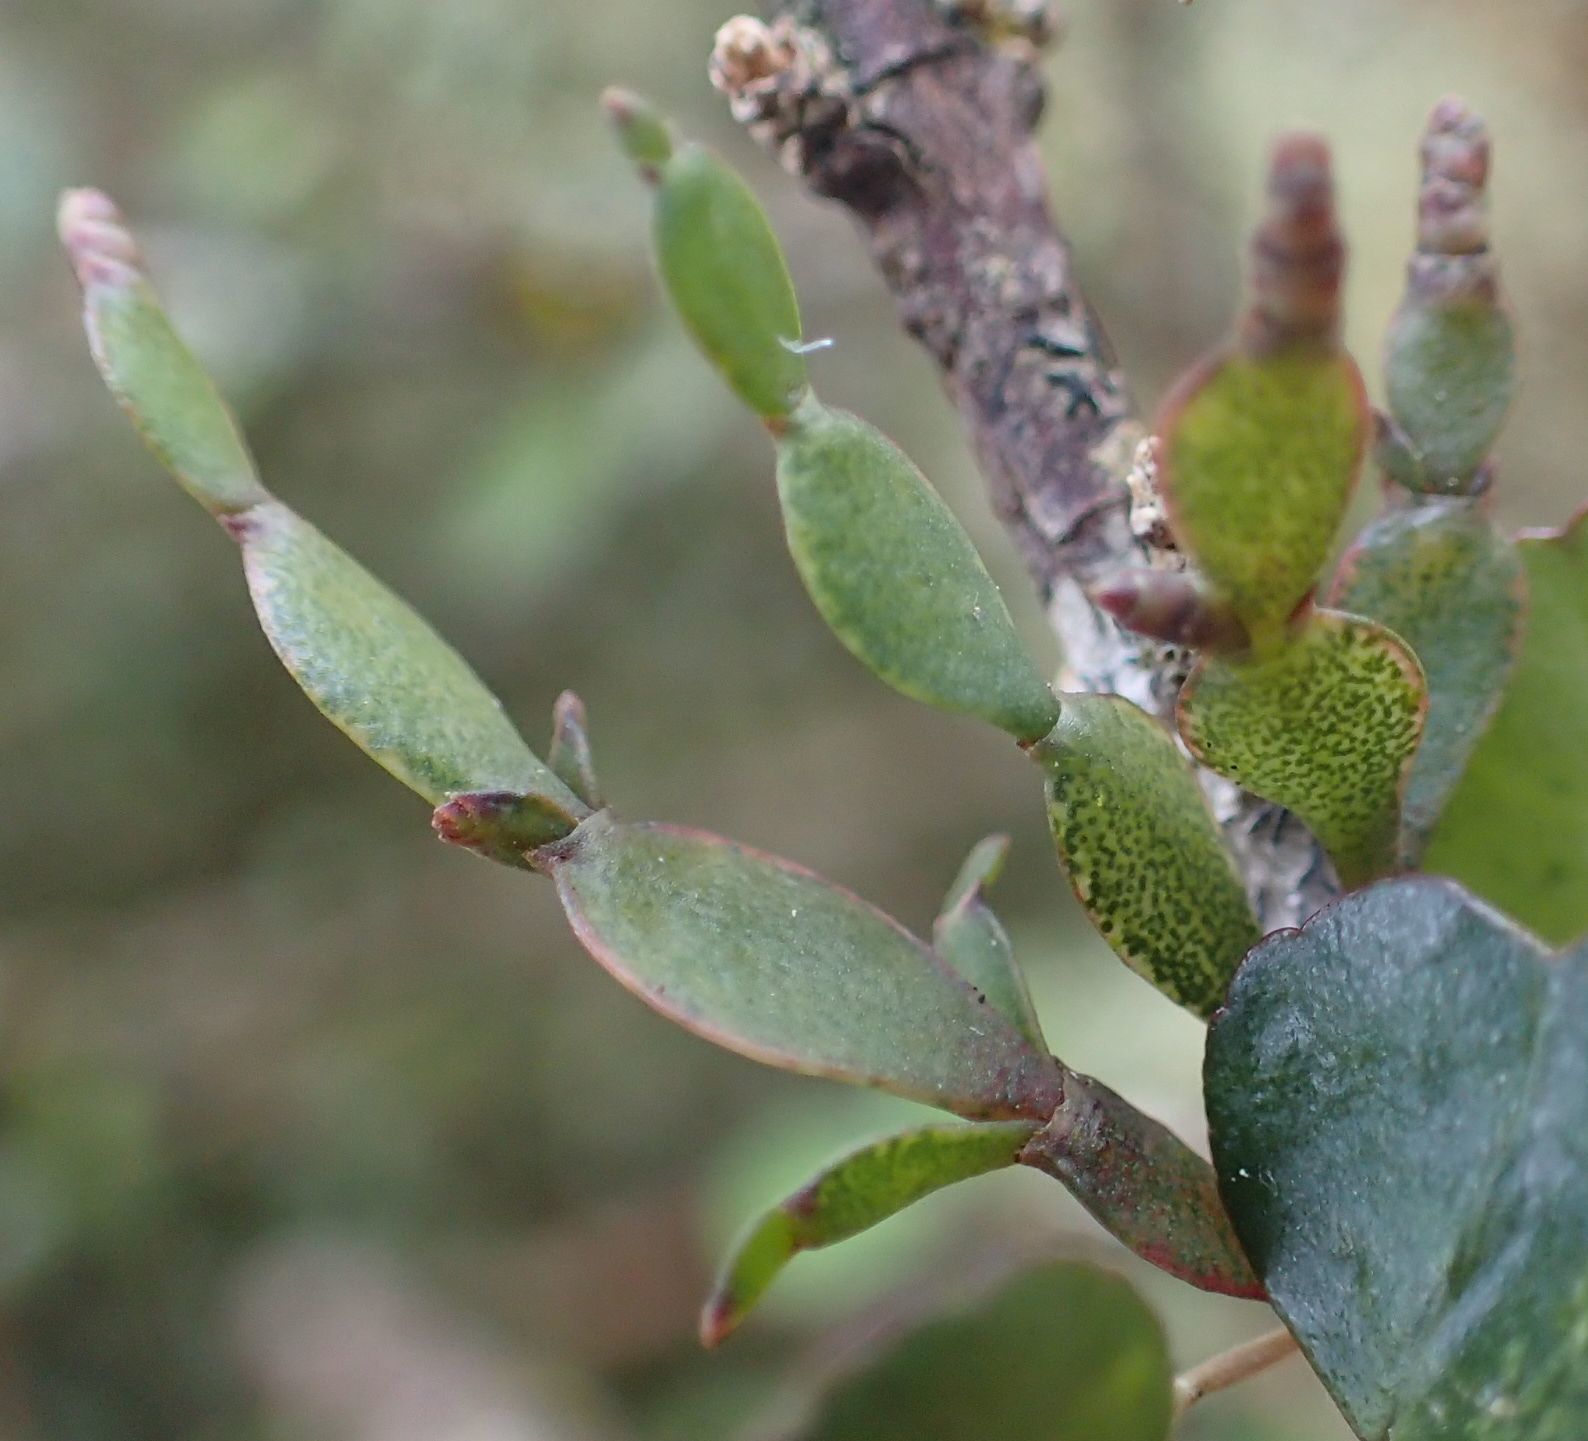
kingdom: Plantae
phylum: Tracheophyta
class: Magnoliopsida
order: Santalales
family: Viscaceae
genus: Korthalsella
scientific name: Korthalsella lindsayi
